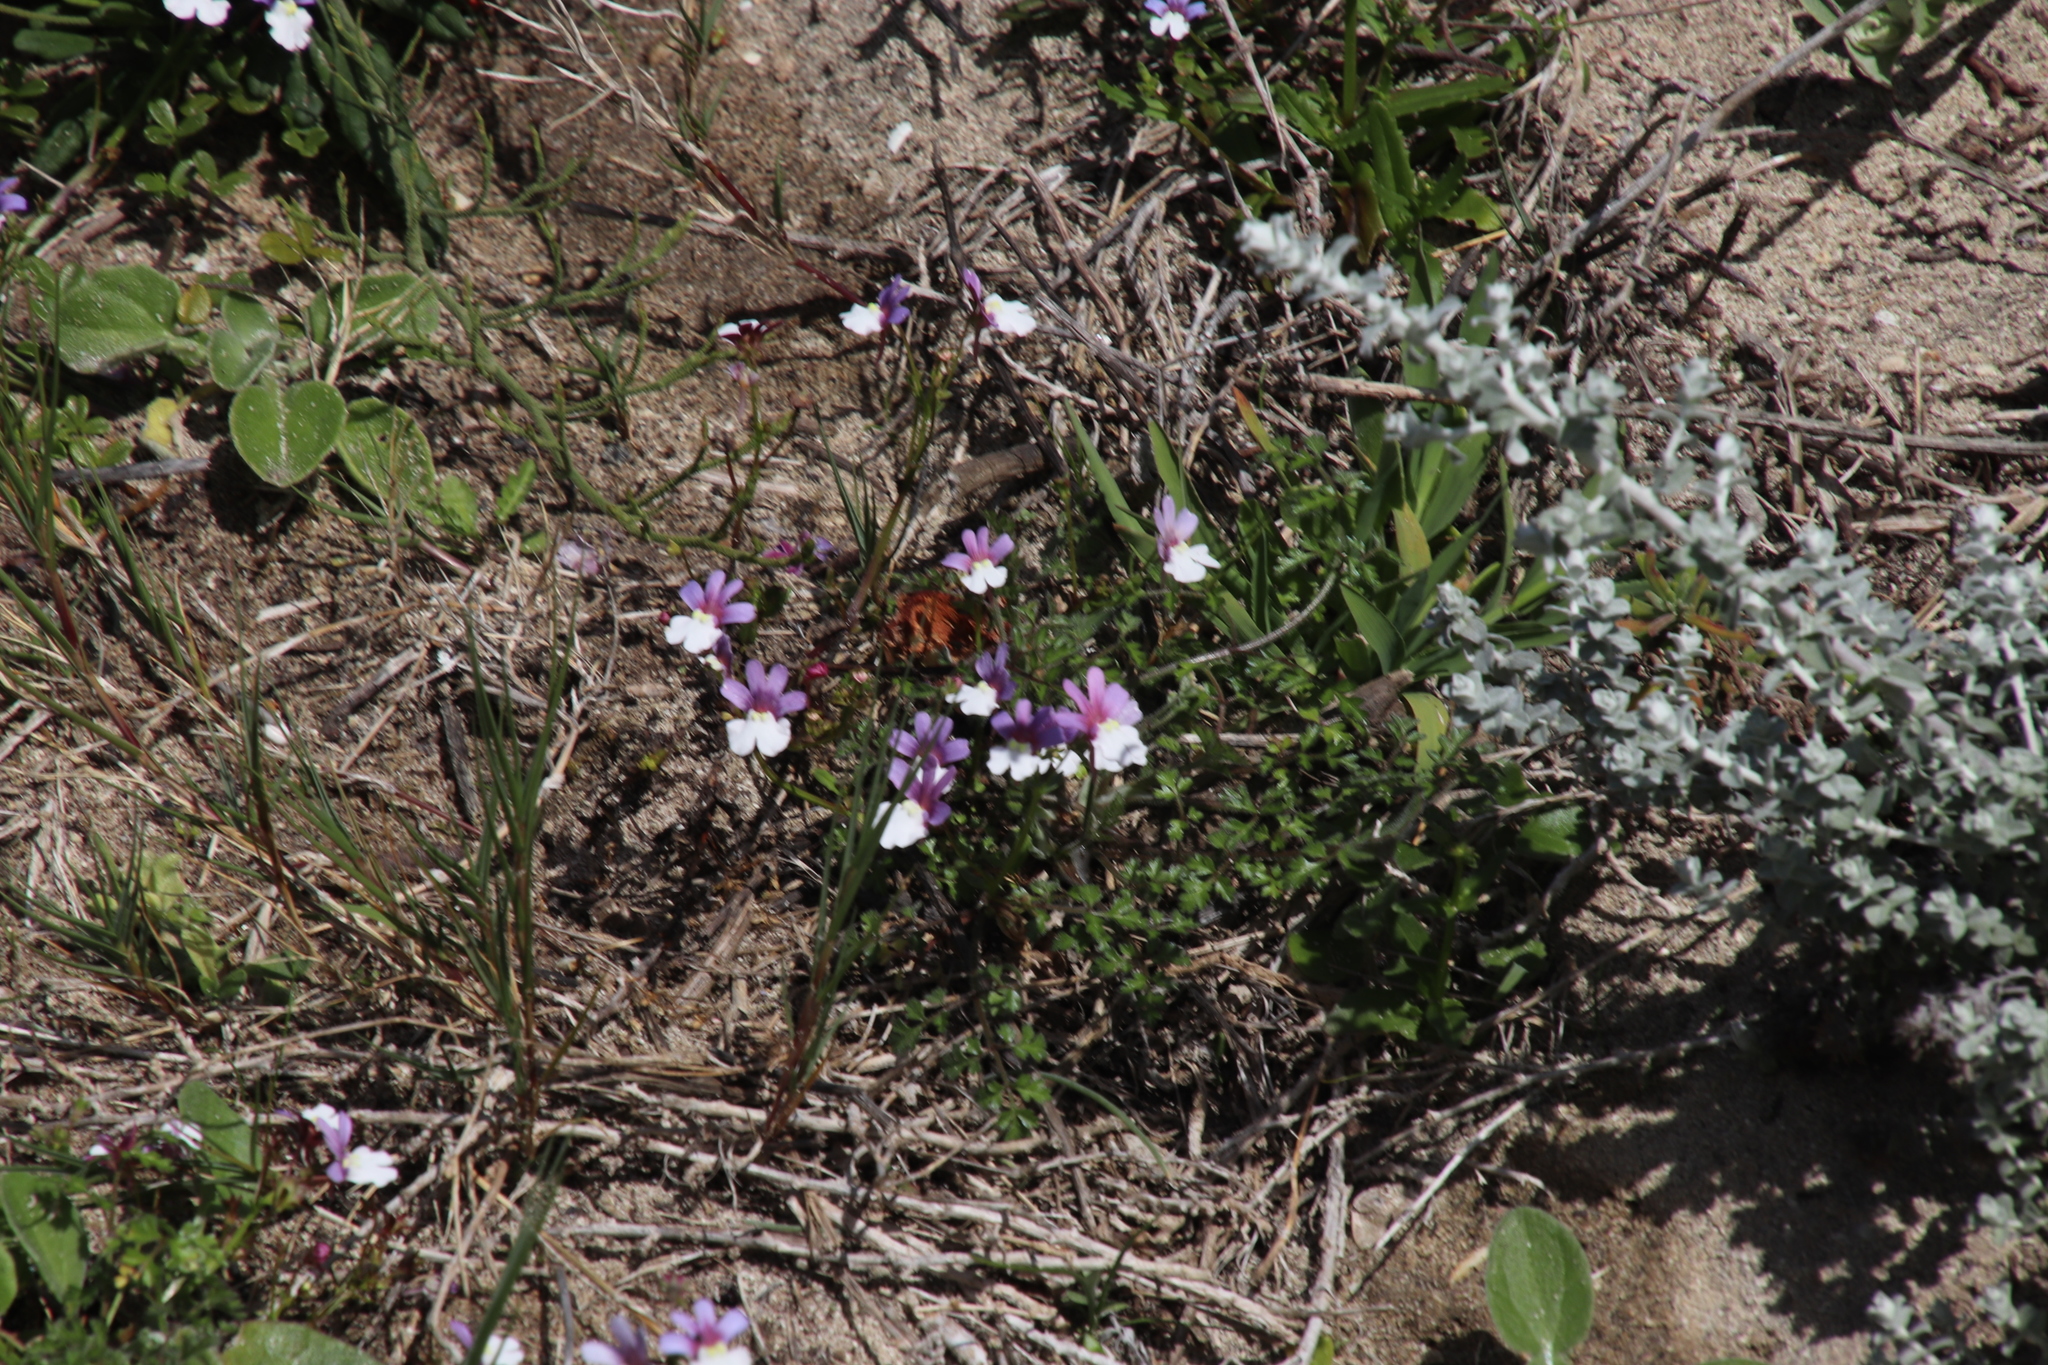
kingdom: Plantae
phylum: Tracheophyta
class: Magnoliopsida
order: Lamiales
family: Scrophulariaceae
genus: Nemesia
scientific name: Nemesia affinis
